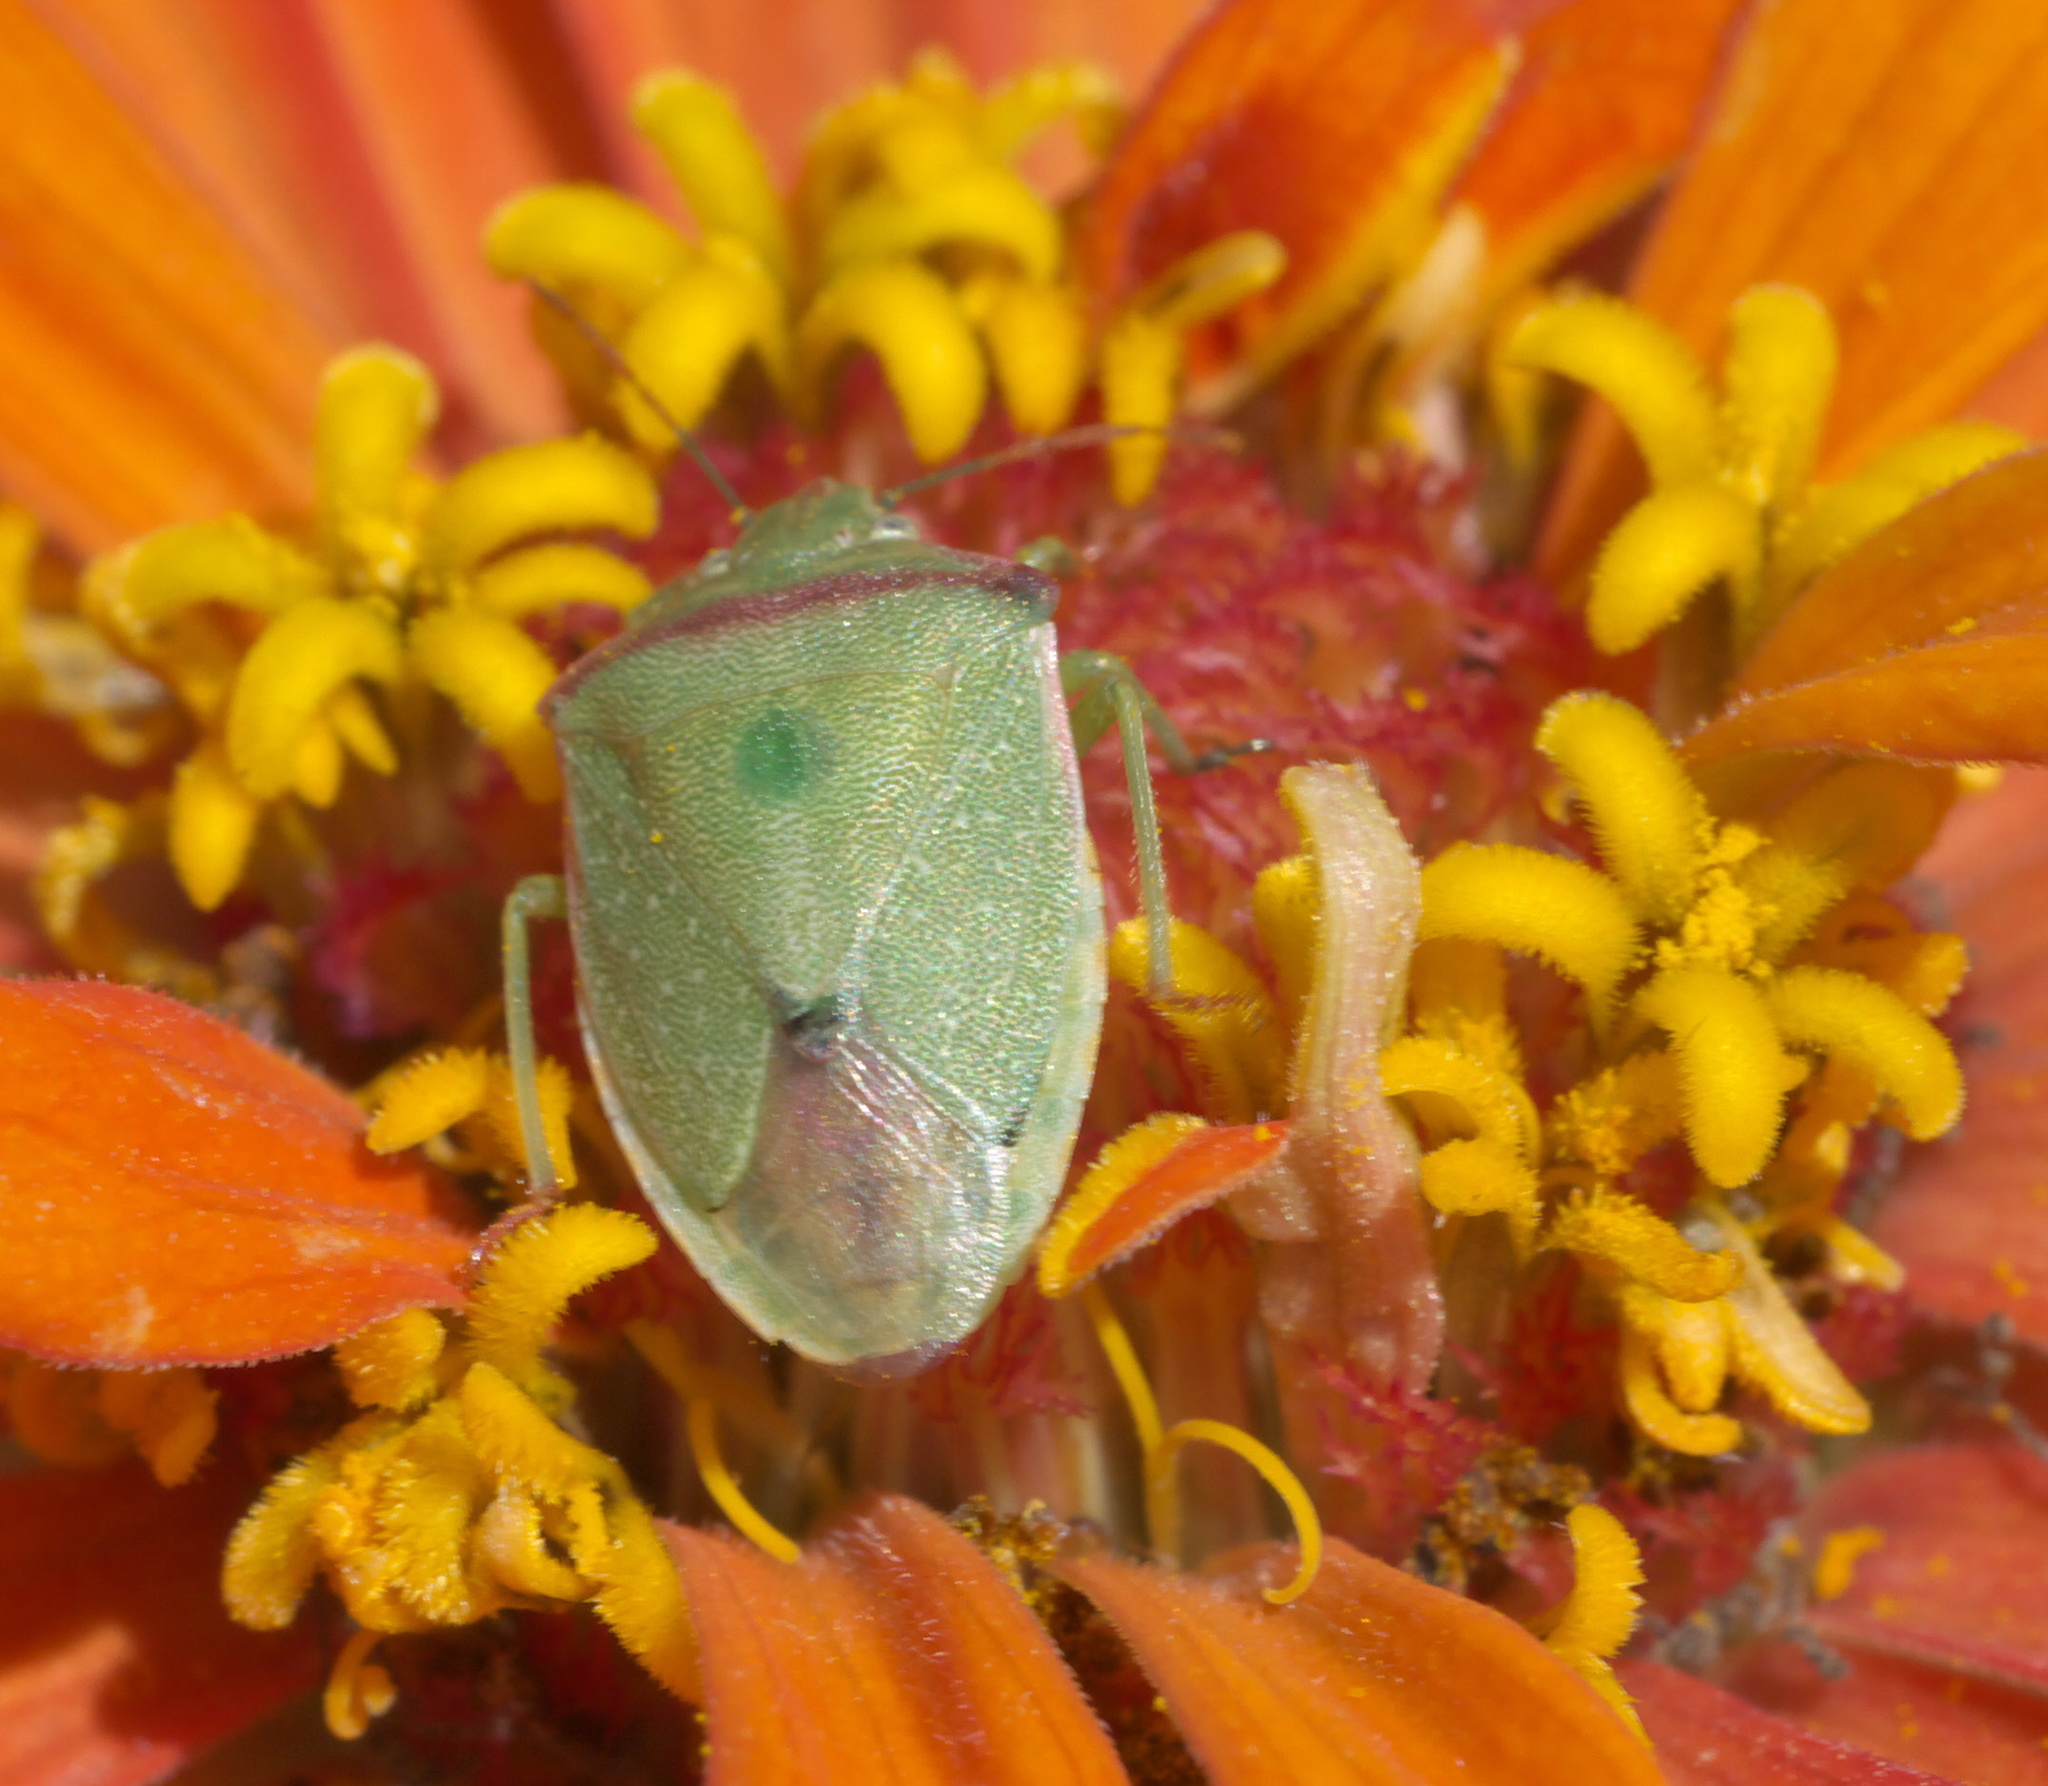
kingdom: Animalia
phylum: Arthropoda
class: Insecta
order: Hemiptera
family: Pentatomidae
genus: Thyanta
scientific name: Thyanta accerra
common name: Stink bug
